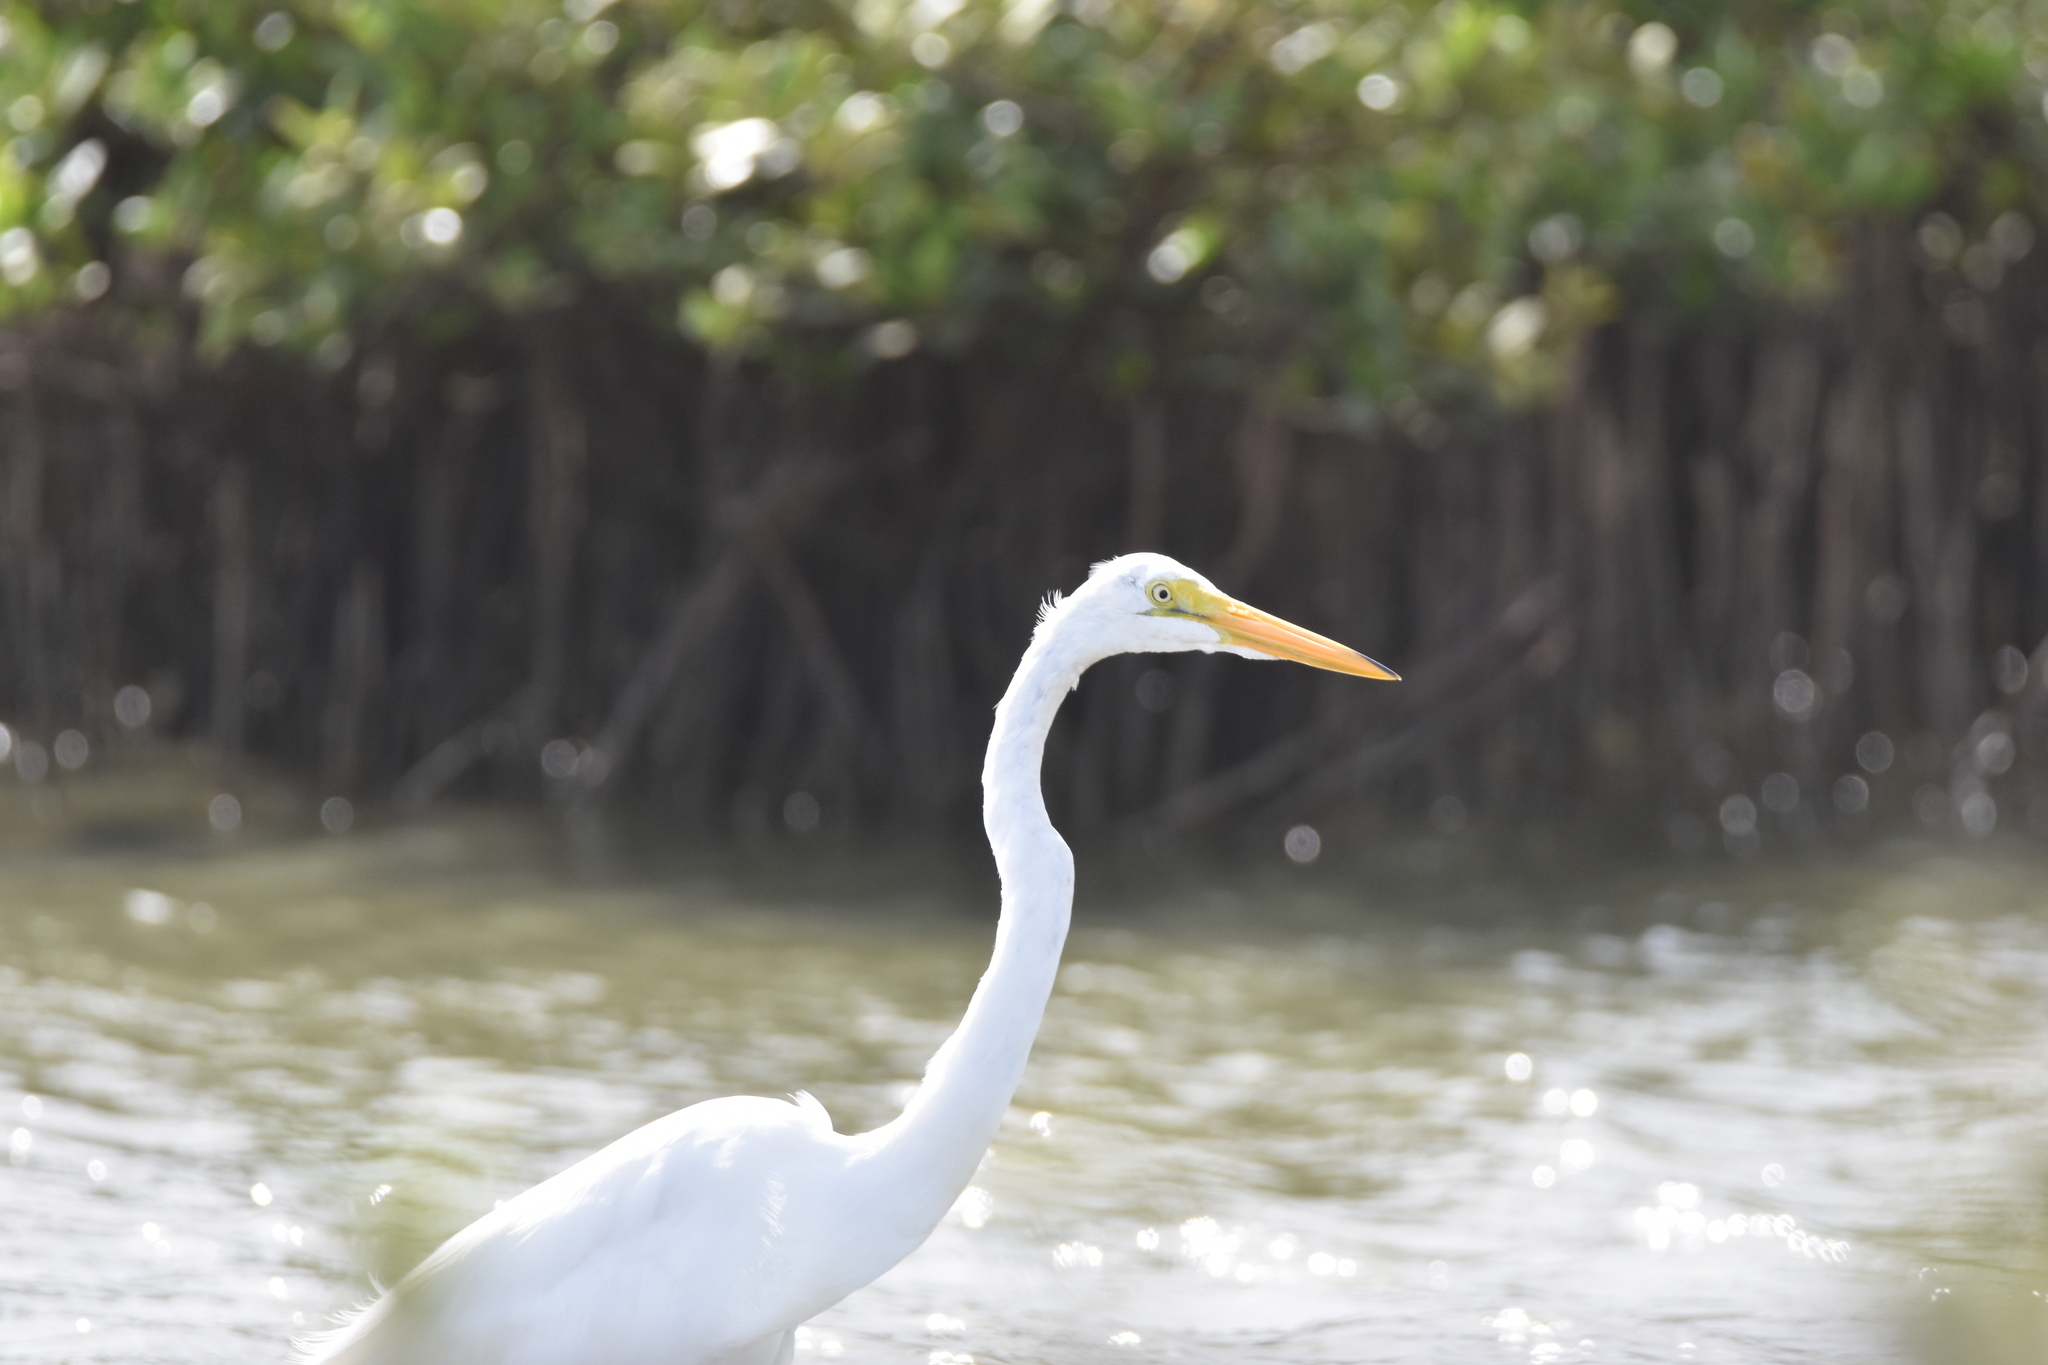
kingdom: Animalia
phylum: Chordata
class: Aves
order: Pelecaniformes
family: Ardeidae
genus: Ardea
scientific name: Ardea alba
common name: Great egret
